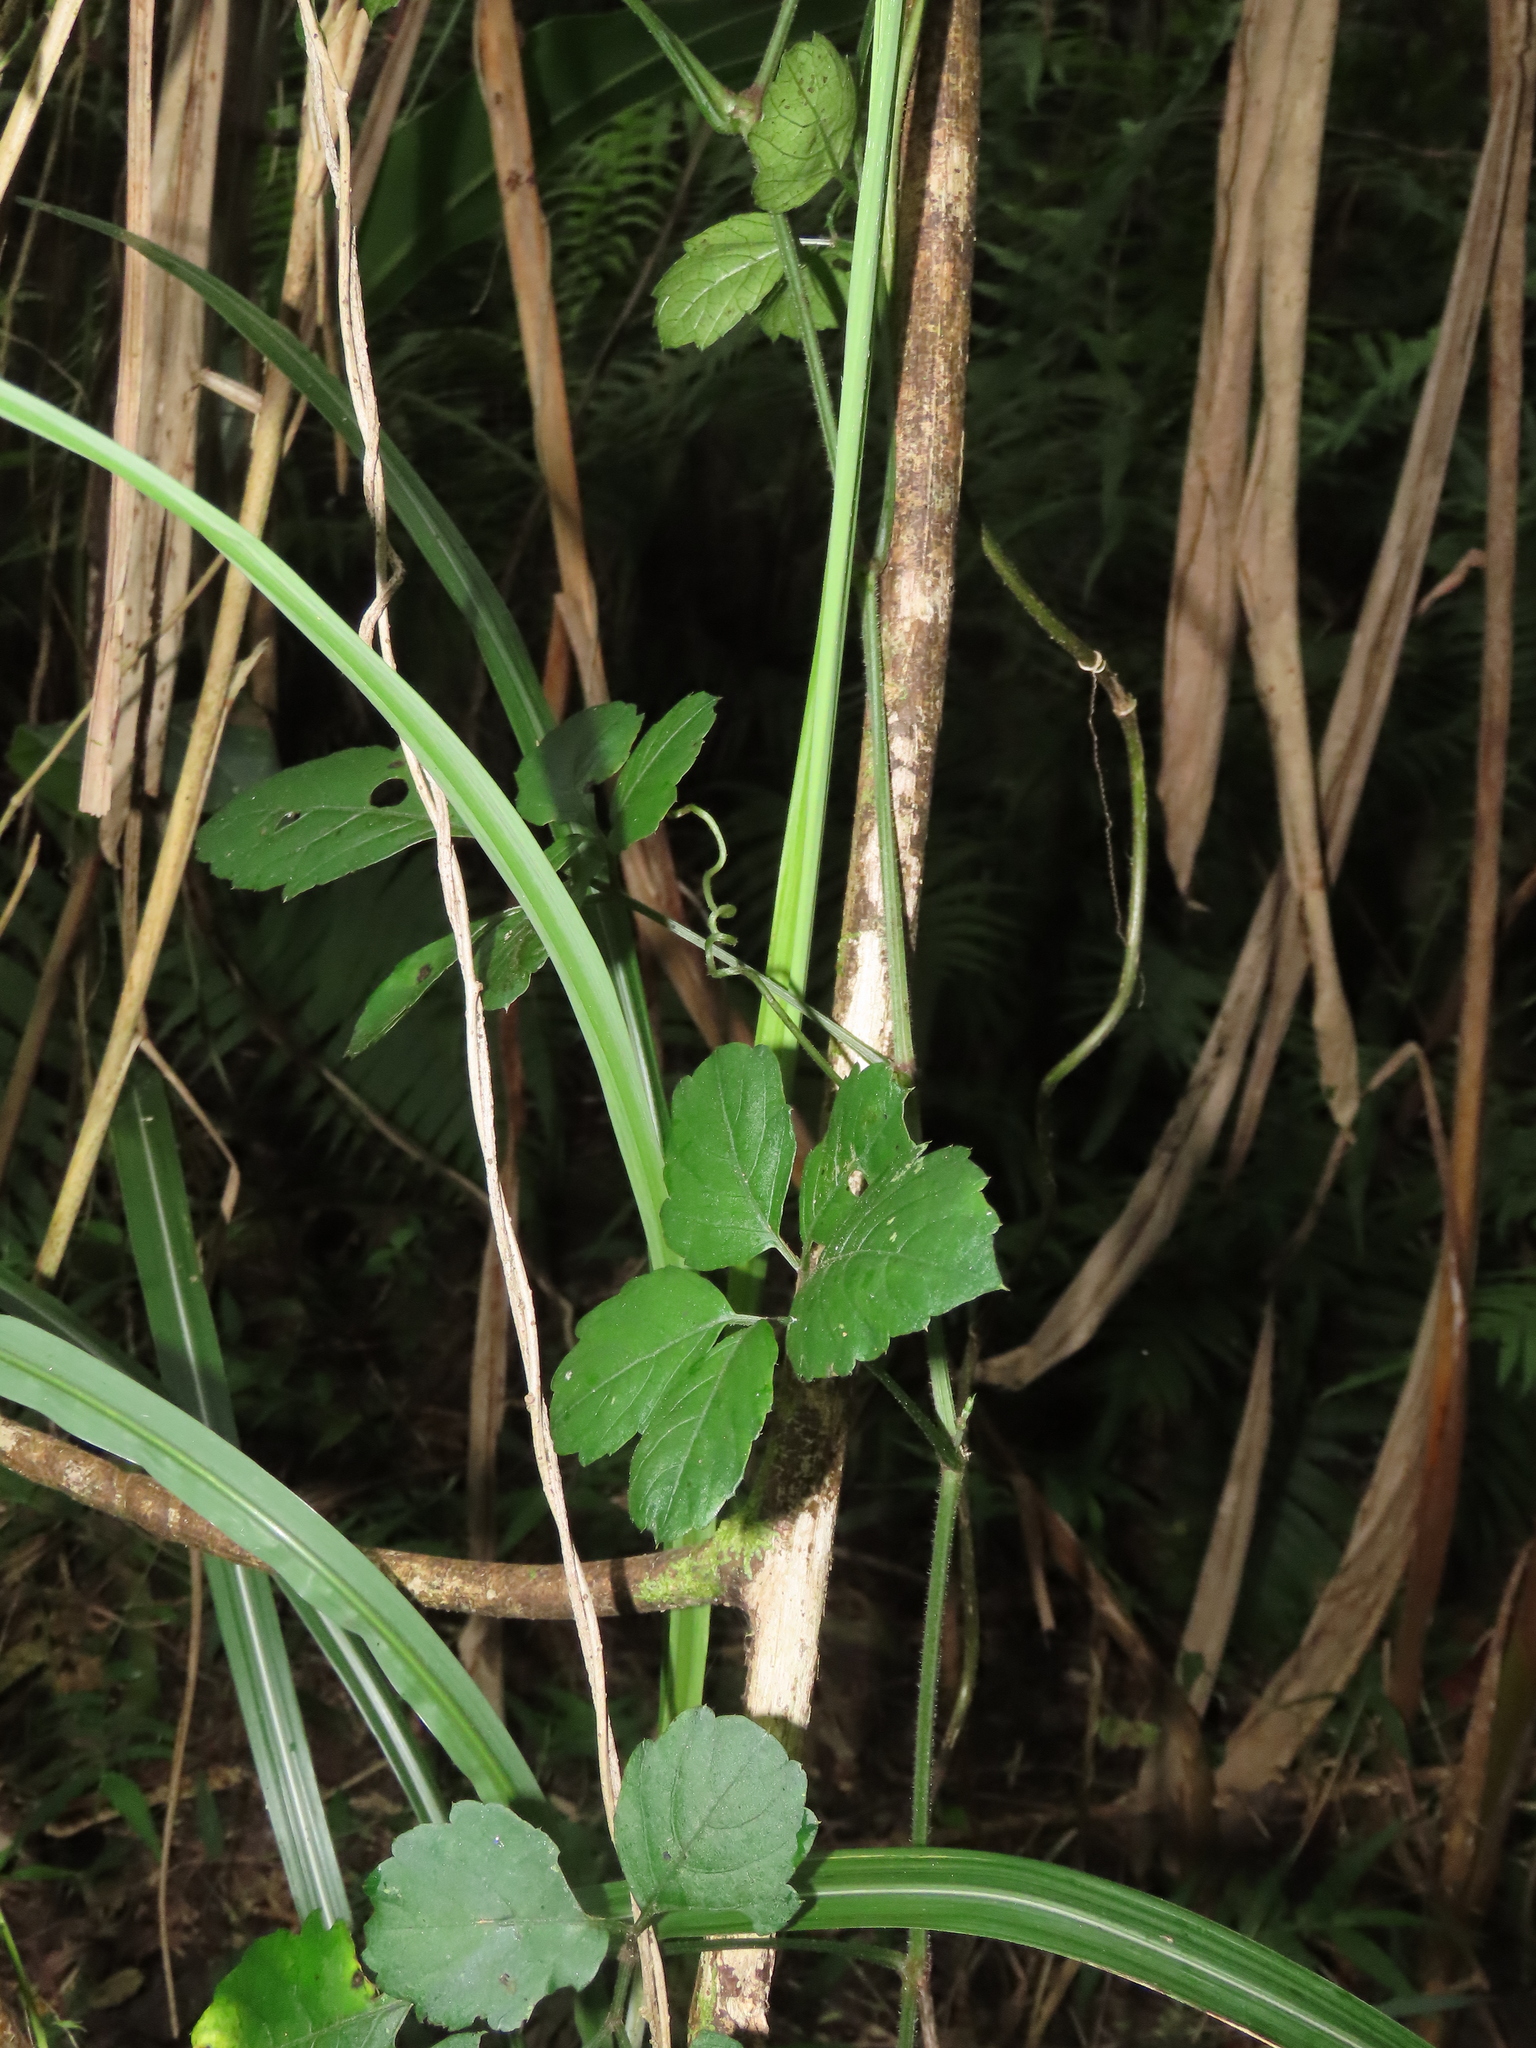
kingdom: Plantae
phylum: Tracheophyta
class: Magnoliopsida
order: Vitales
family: Vitaceae
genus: Causonis
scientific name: Causonis japonica
